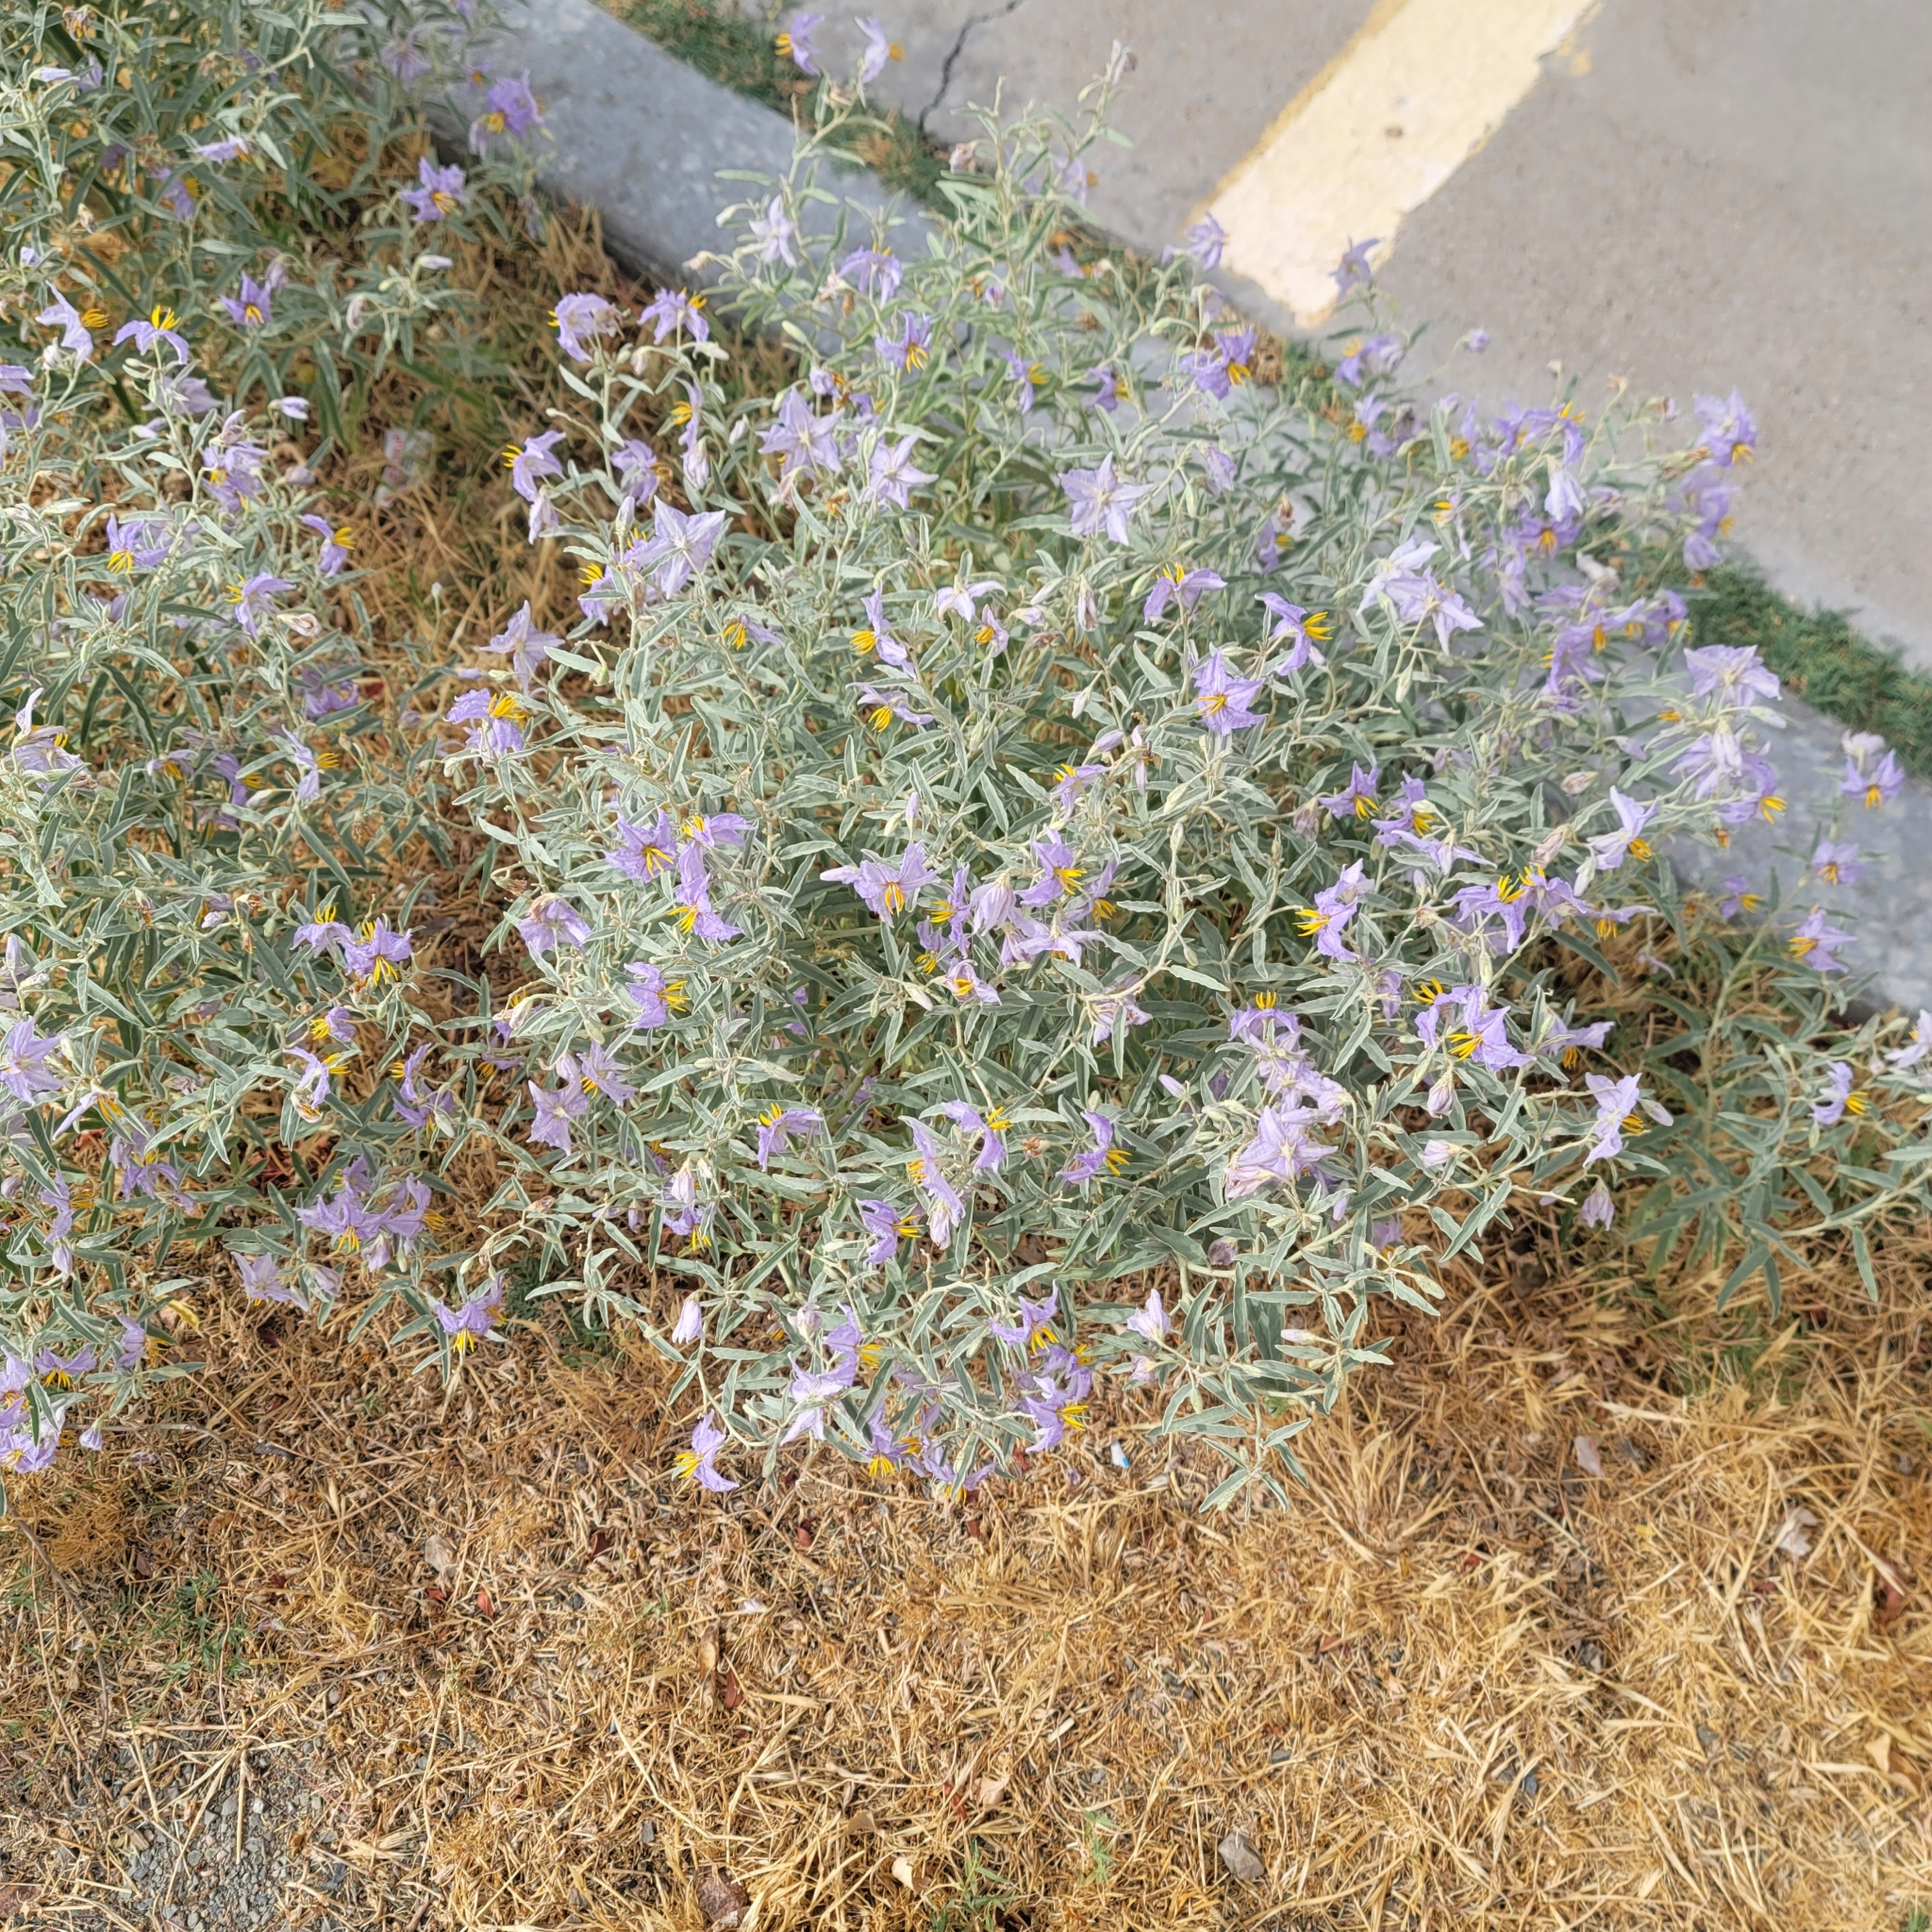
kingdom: Plantae
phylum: Tracheophyta
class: Magnoliopsida
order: Solanales
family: Solanaceae
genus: Solanum
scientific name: Solanum elaeagnifolium
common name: Silverleaf nightshade
